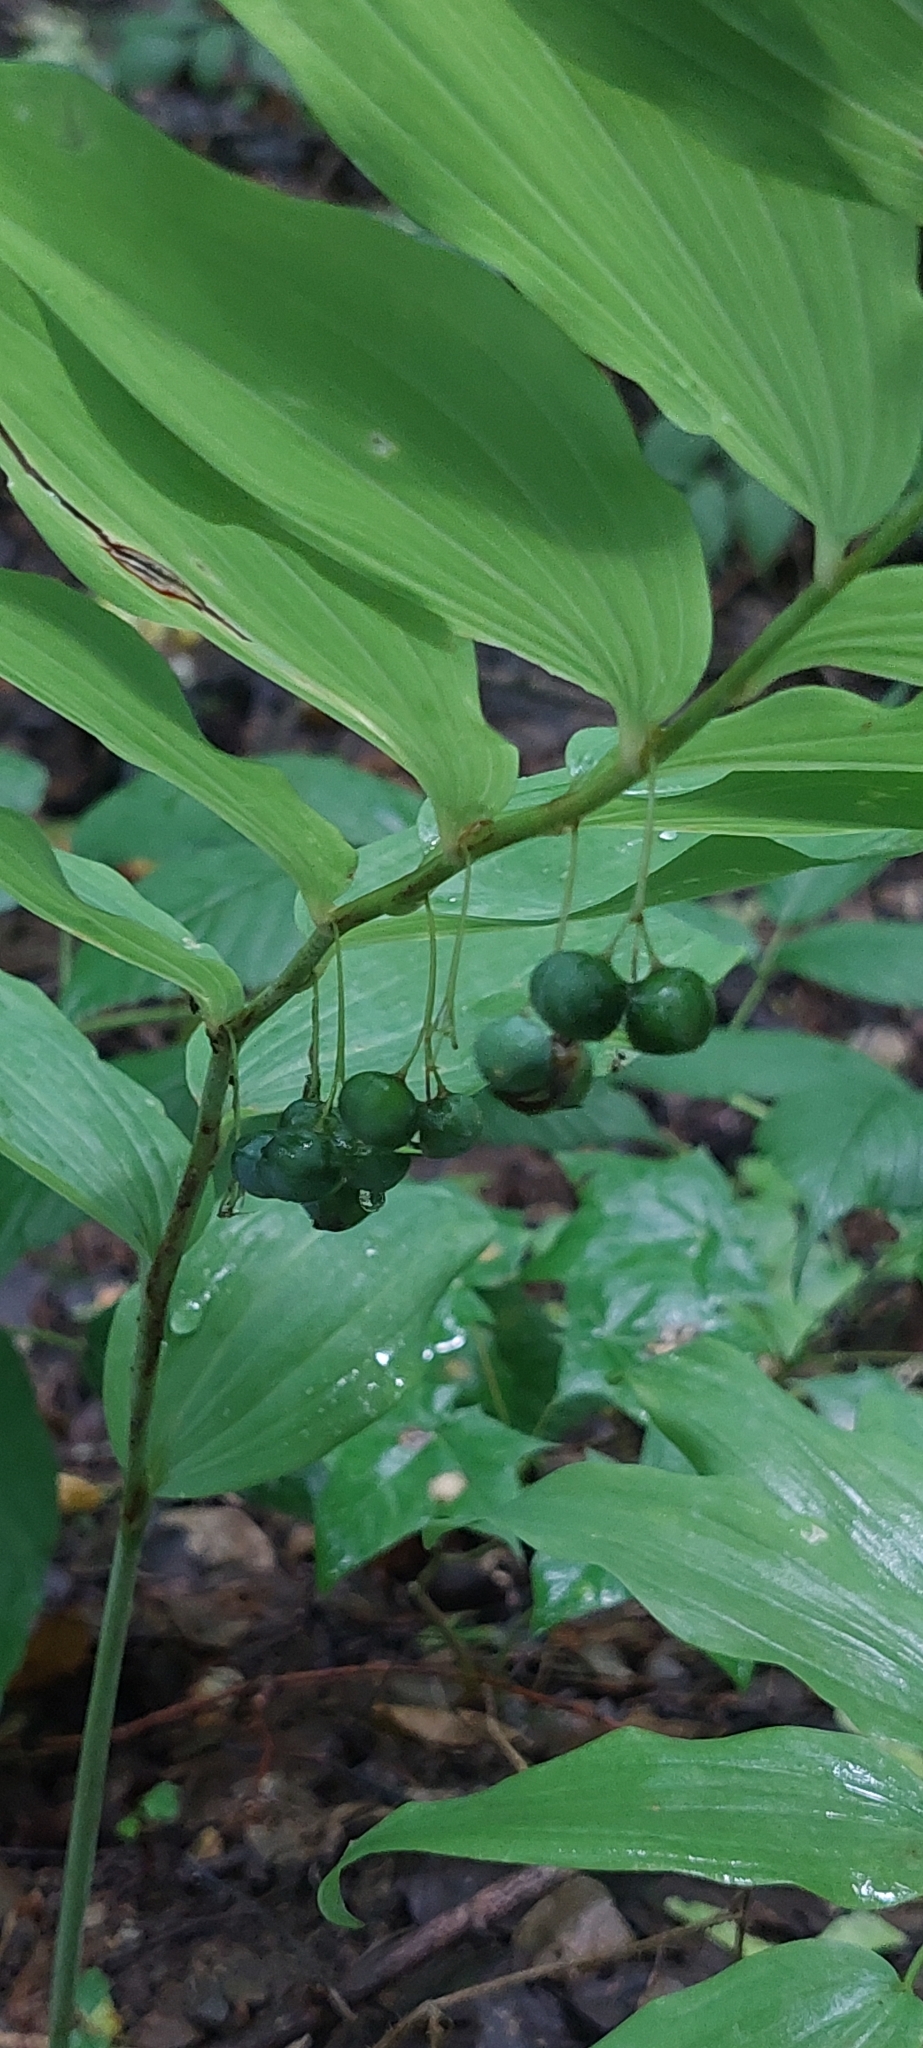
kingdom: Plantae
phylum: Tracheophyta
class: Liliopsida
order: Asparagales
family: Asparagaceae
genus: Polygonatum
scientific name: Polygonatum multiflorum
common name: Solomon's-seal
